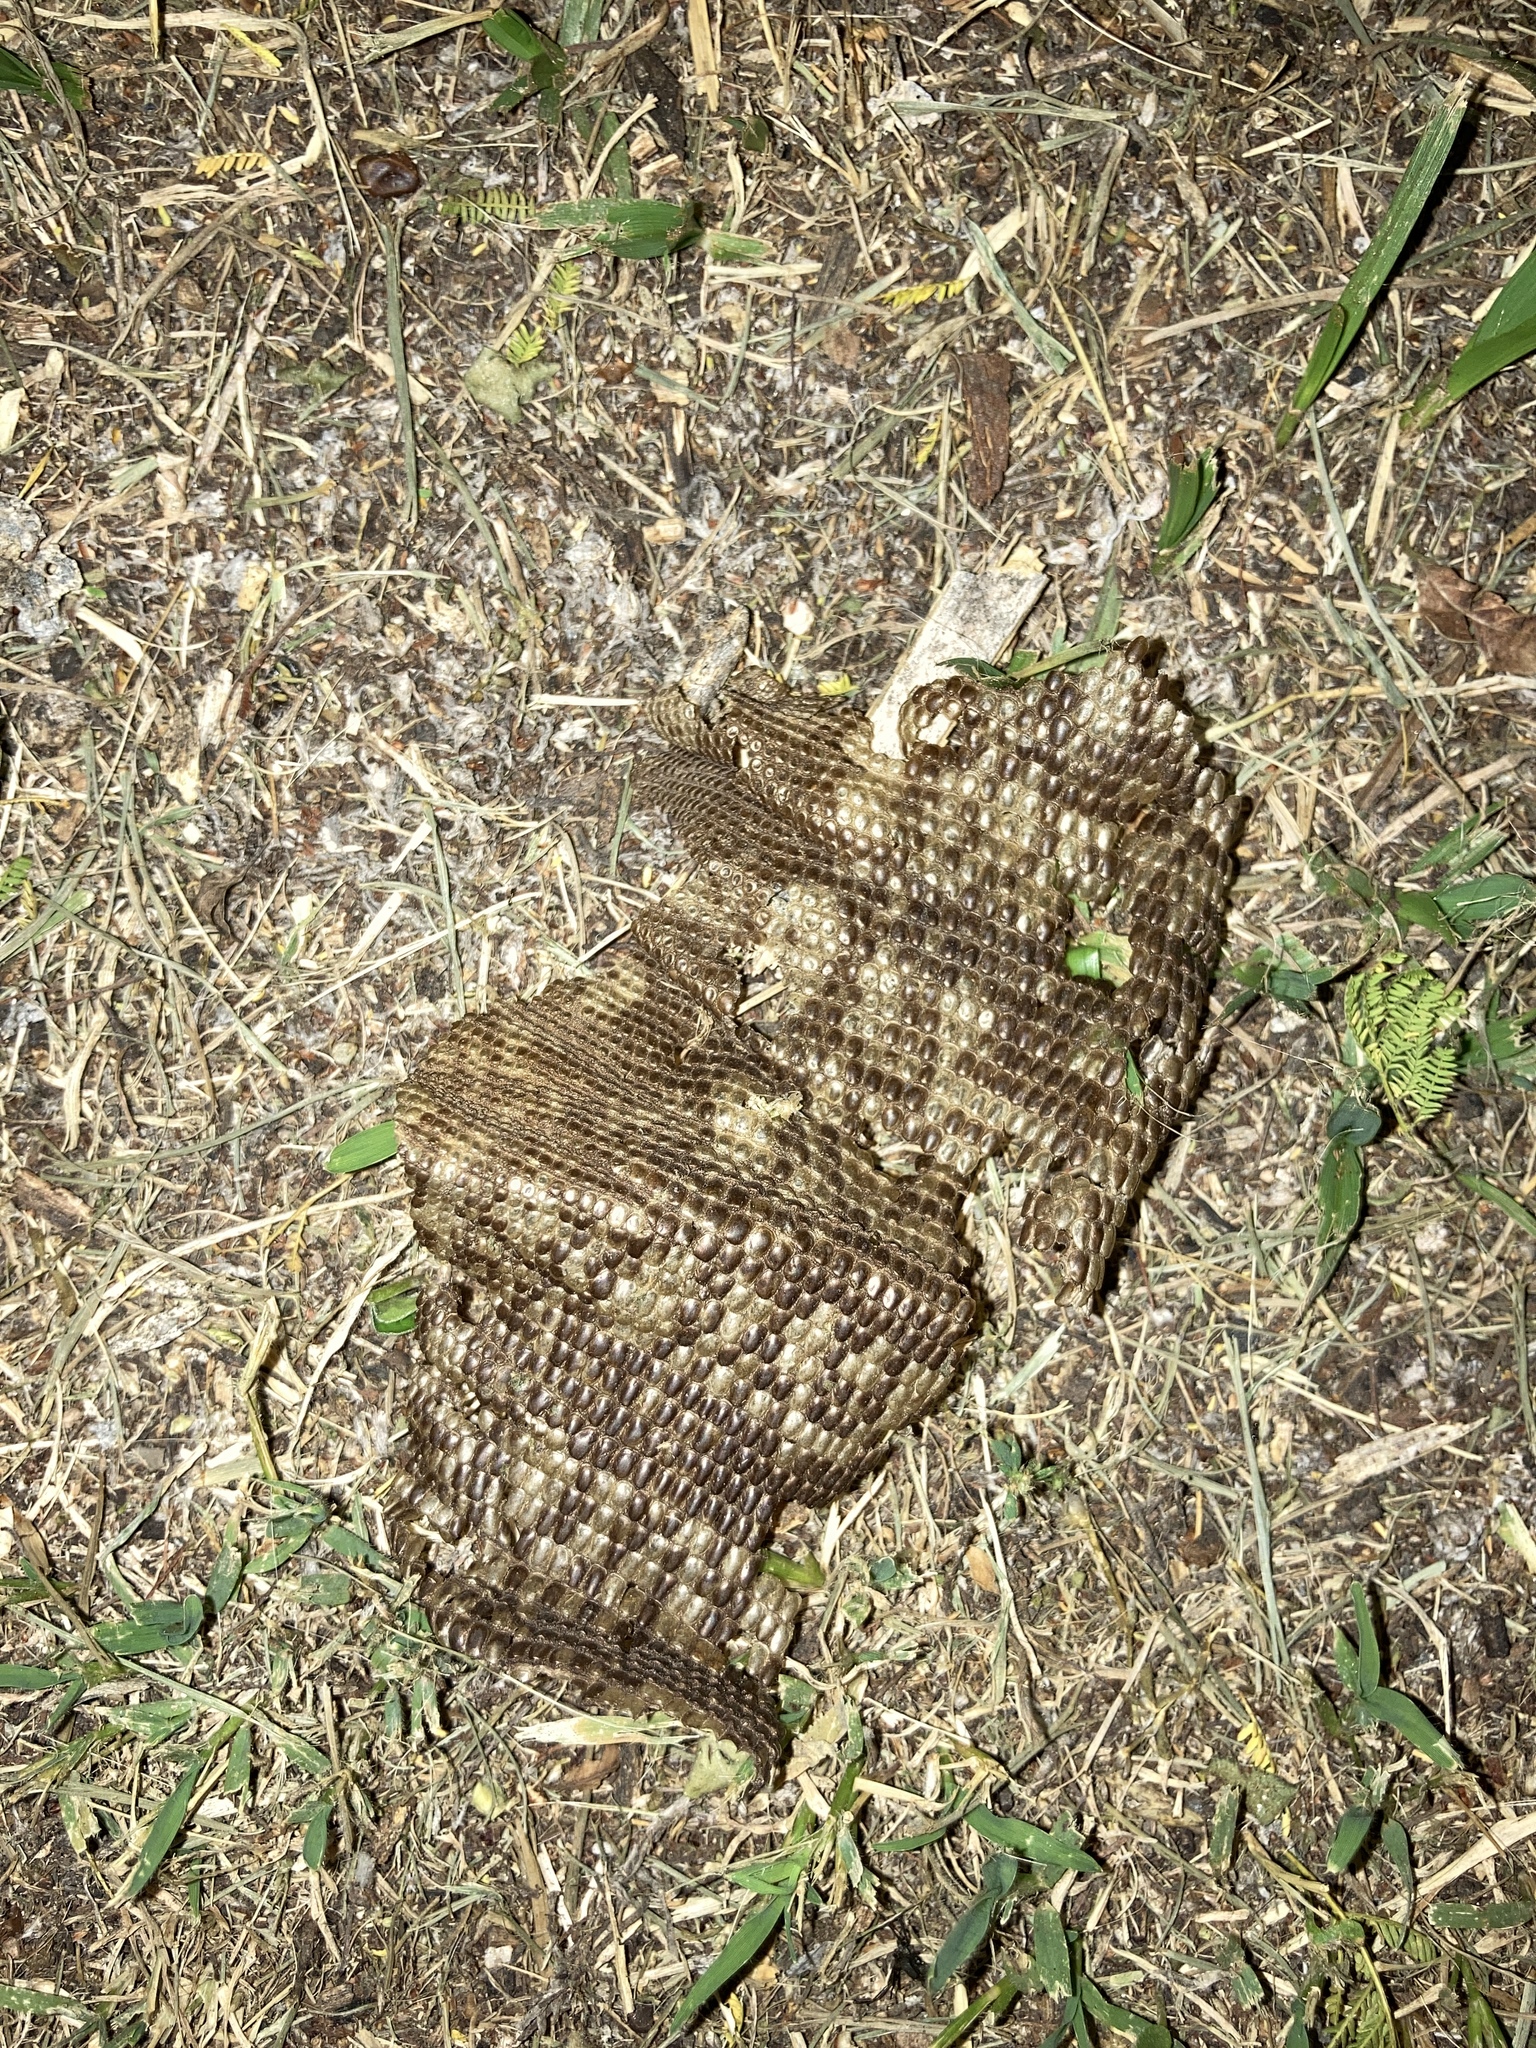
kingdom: Animalia
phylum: Chordata
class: Squamata
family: Teiidae
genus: Salvator
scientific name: Salvator merianae
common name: Argentine black and white tegu
